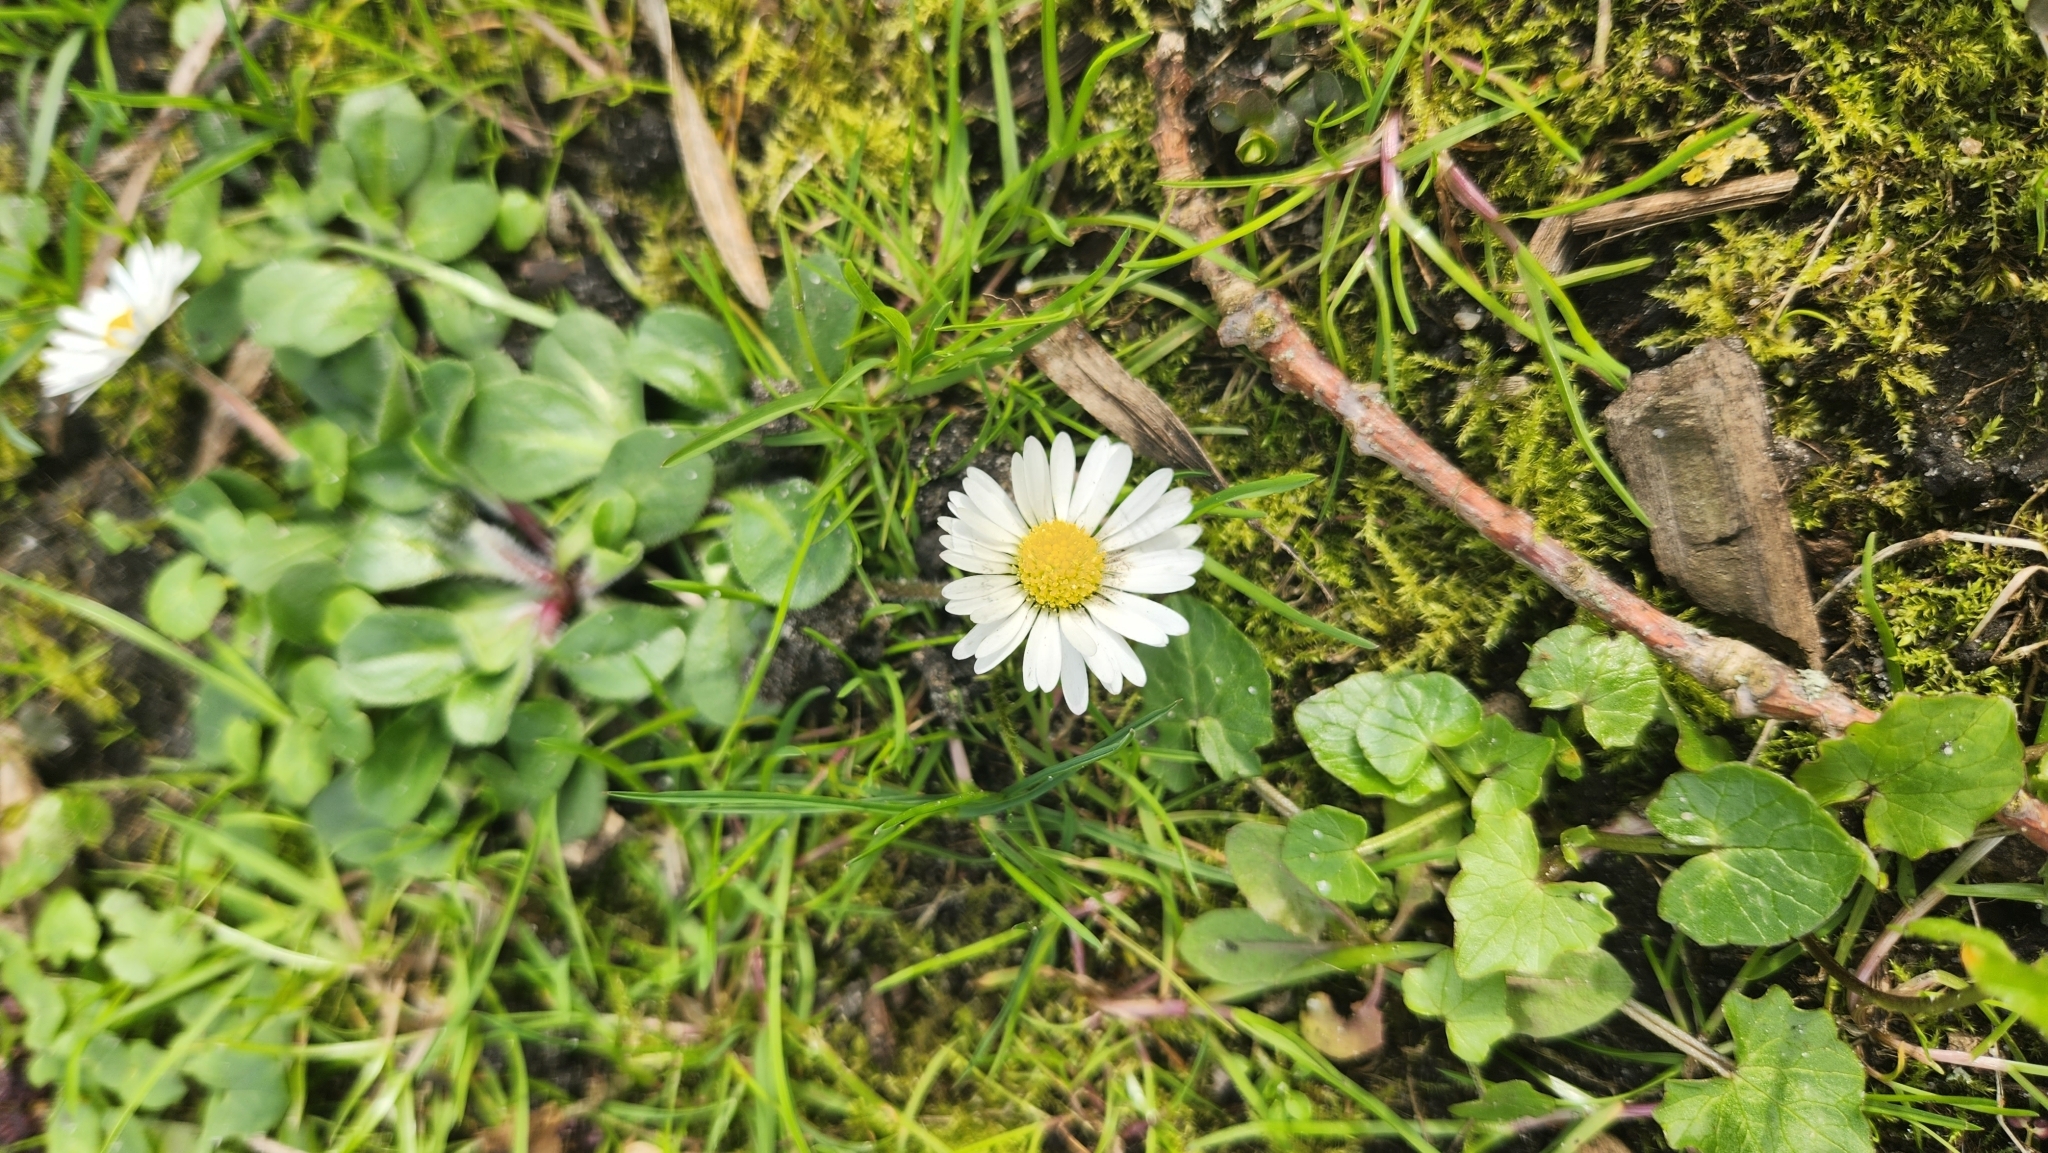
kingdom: Plantae
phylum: Tracheophyta
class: Magnoliopsida
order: Asterales
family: Asteraceae
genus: Bellis
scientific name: Bellis perennis
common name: Lawndaisy
